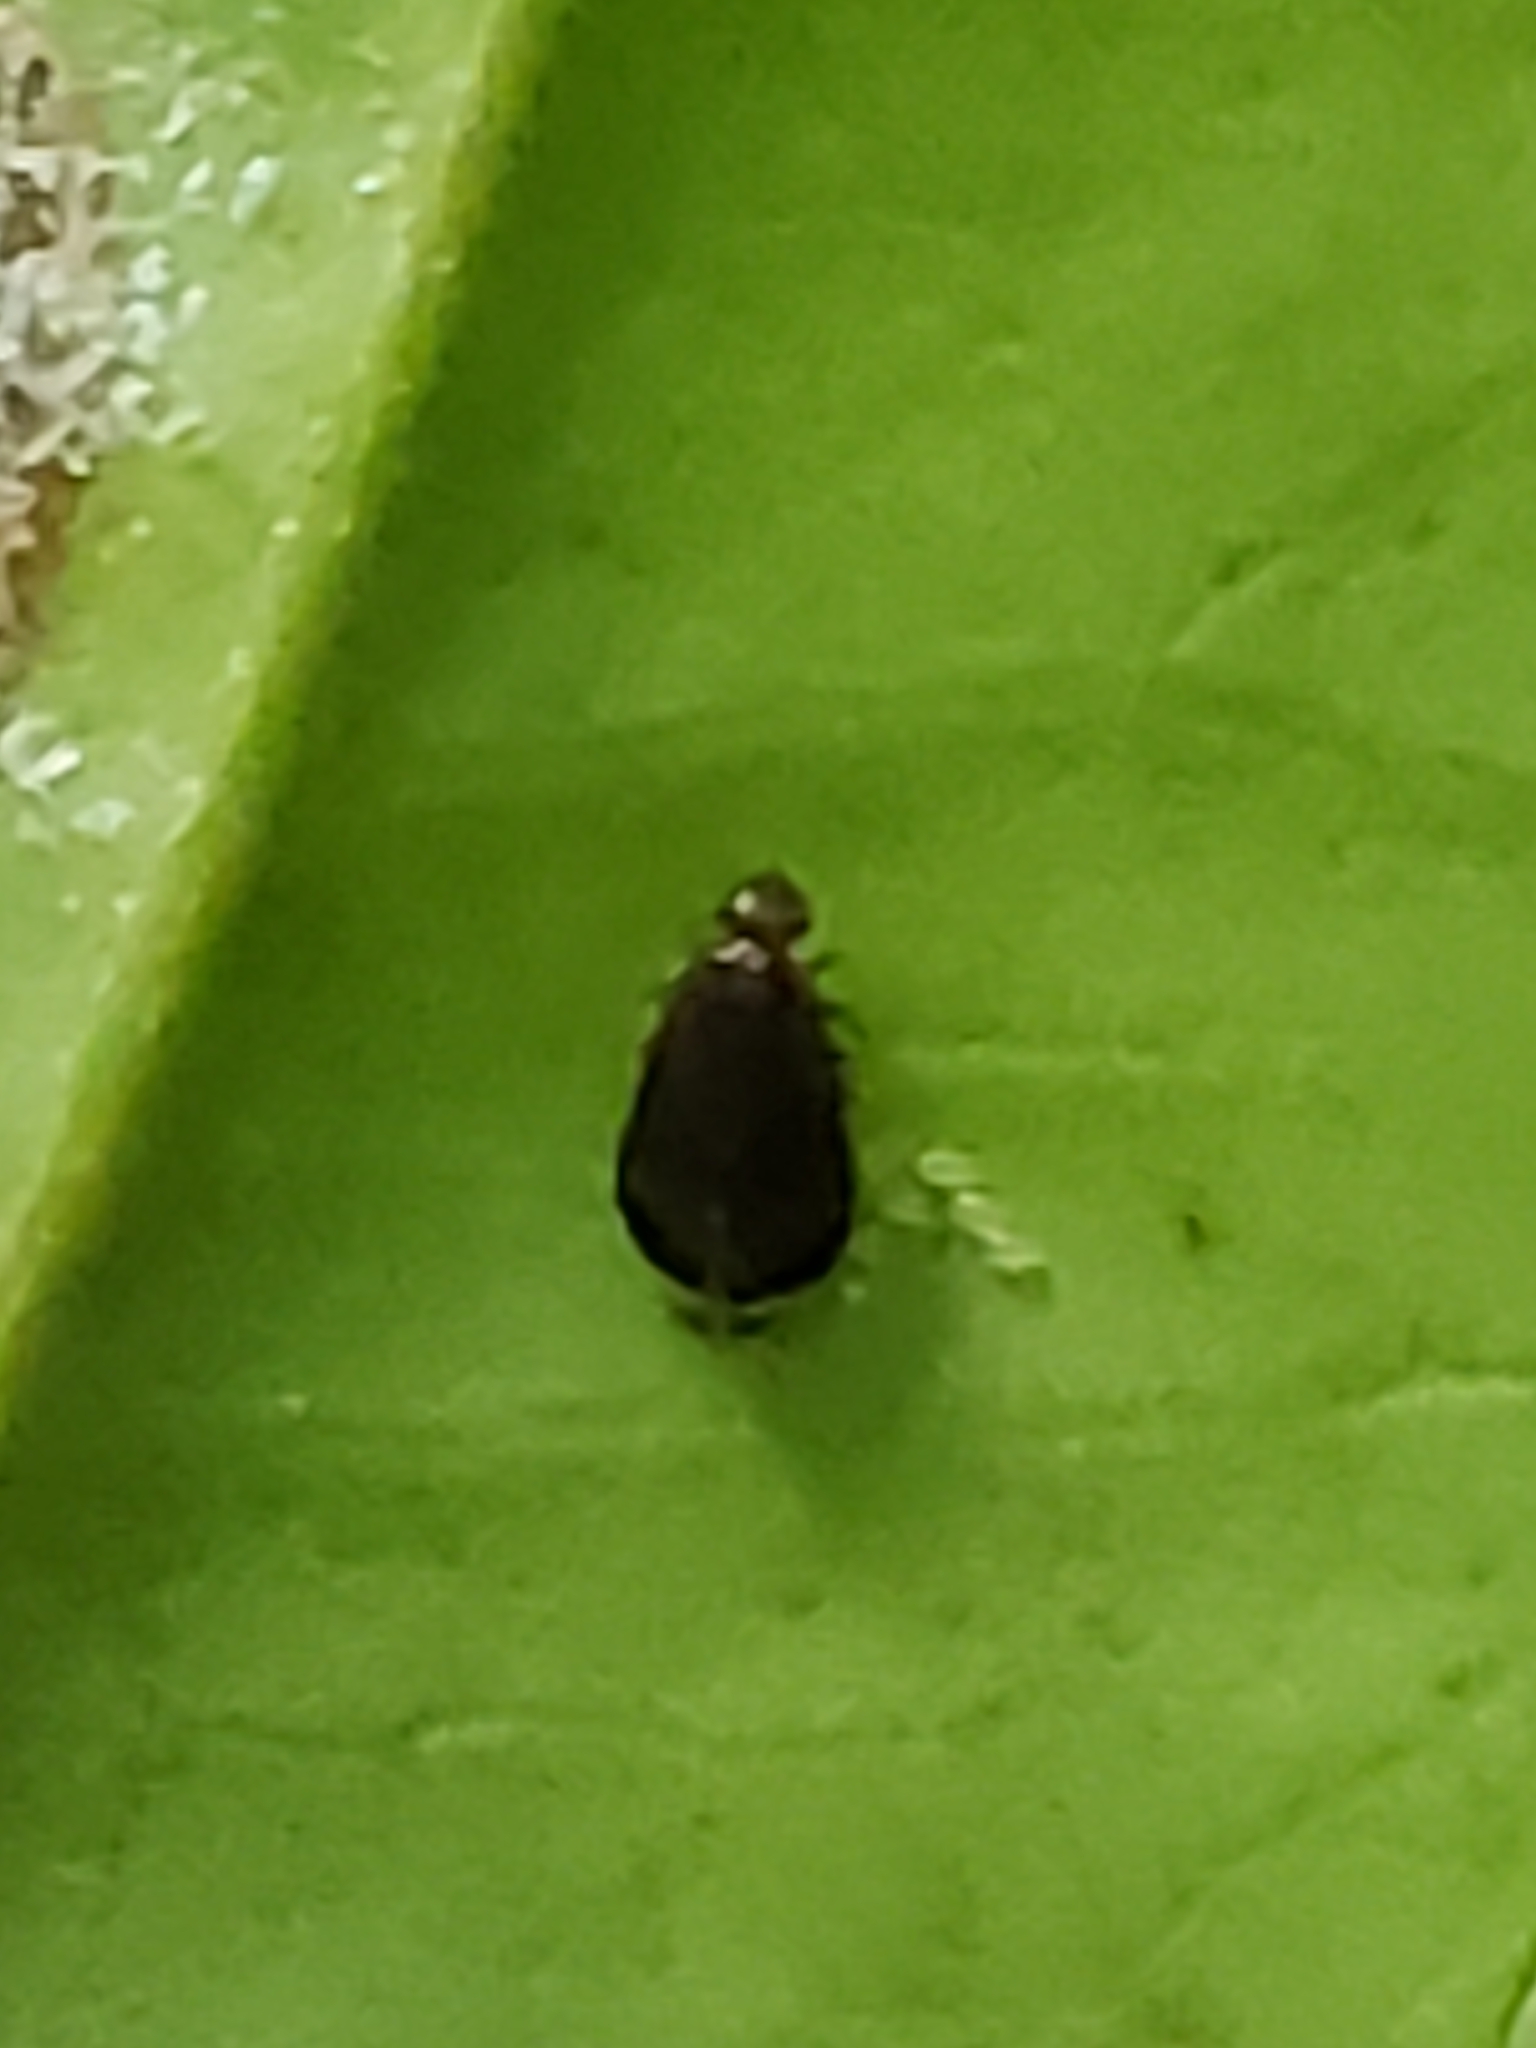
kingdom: Animalia
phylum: Arthropoda
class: Insecta
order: Psocodea
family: Amphipsocidae
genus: Polypsocus
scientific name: Polypsocus corruptus
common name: Corrupt barklouse
